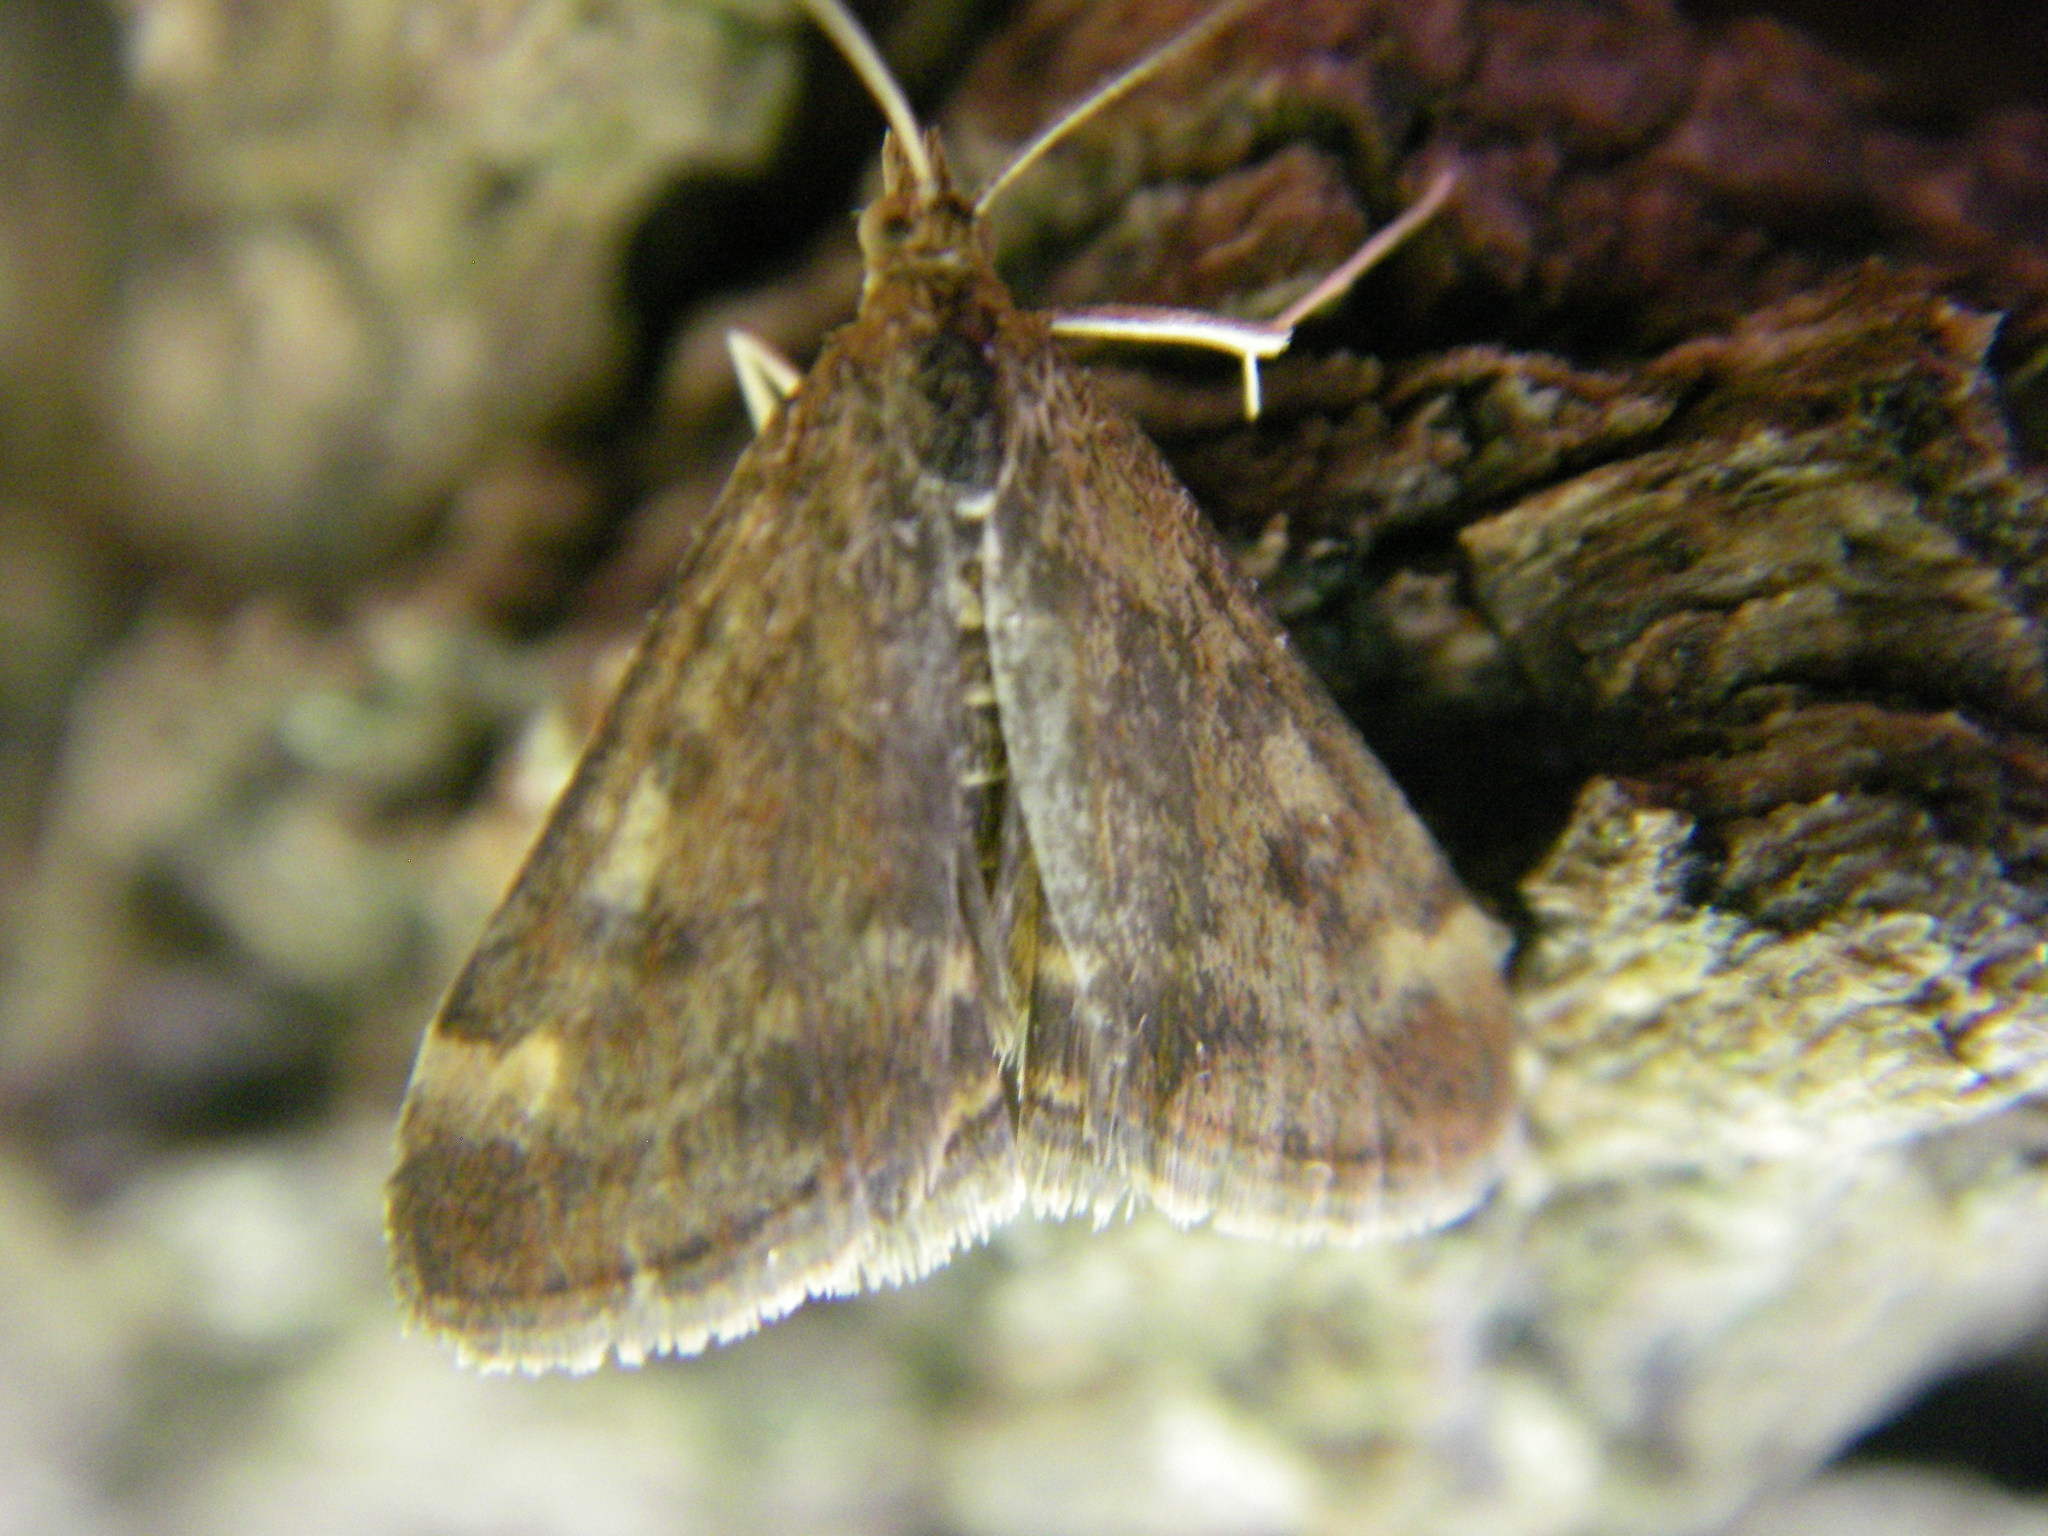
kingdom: Animalia
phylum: Arthropoda
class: Insecta
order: Lepidoptera
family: Crambidae
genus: Pyrausta
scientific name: Pyrausta despicata
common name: Straw-barred pearl
